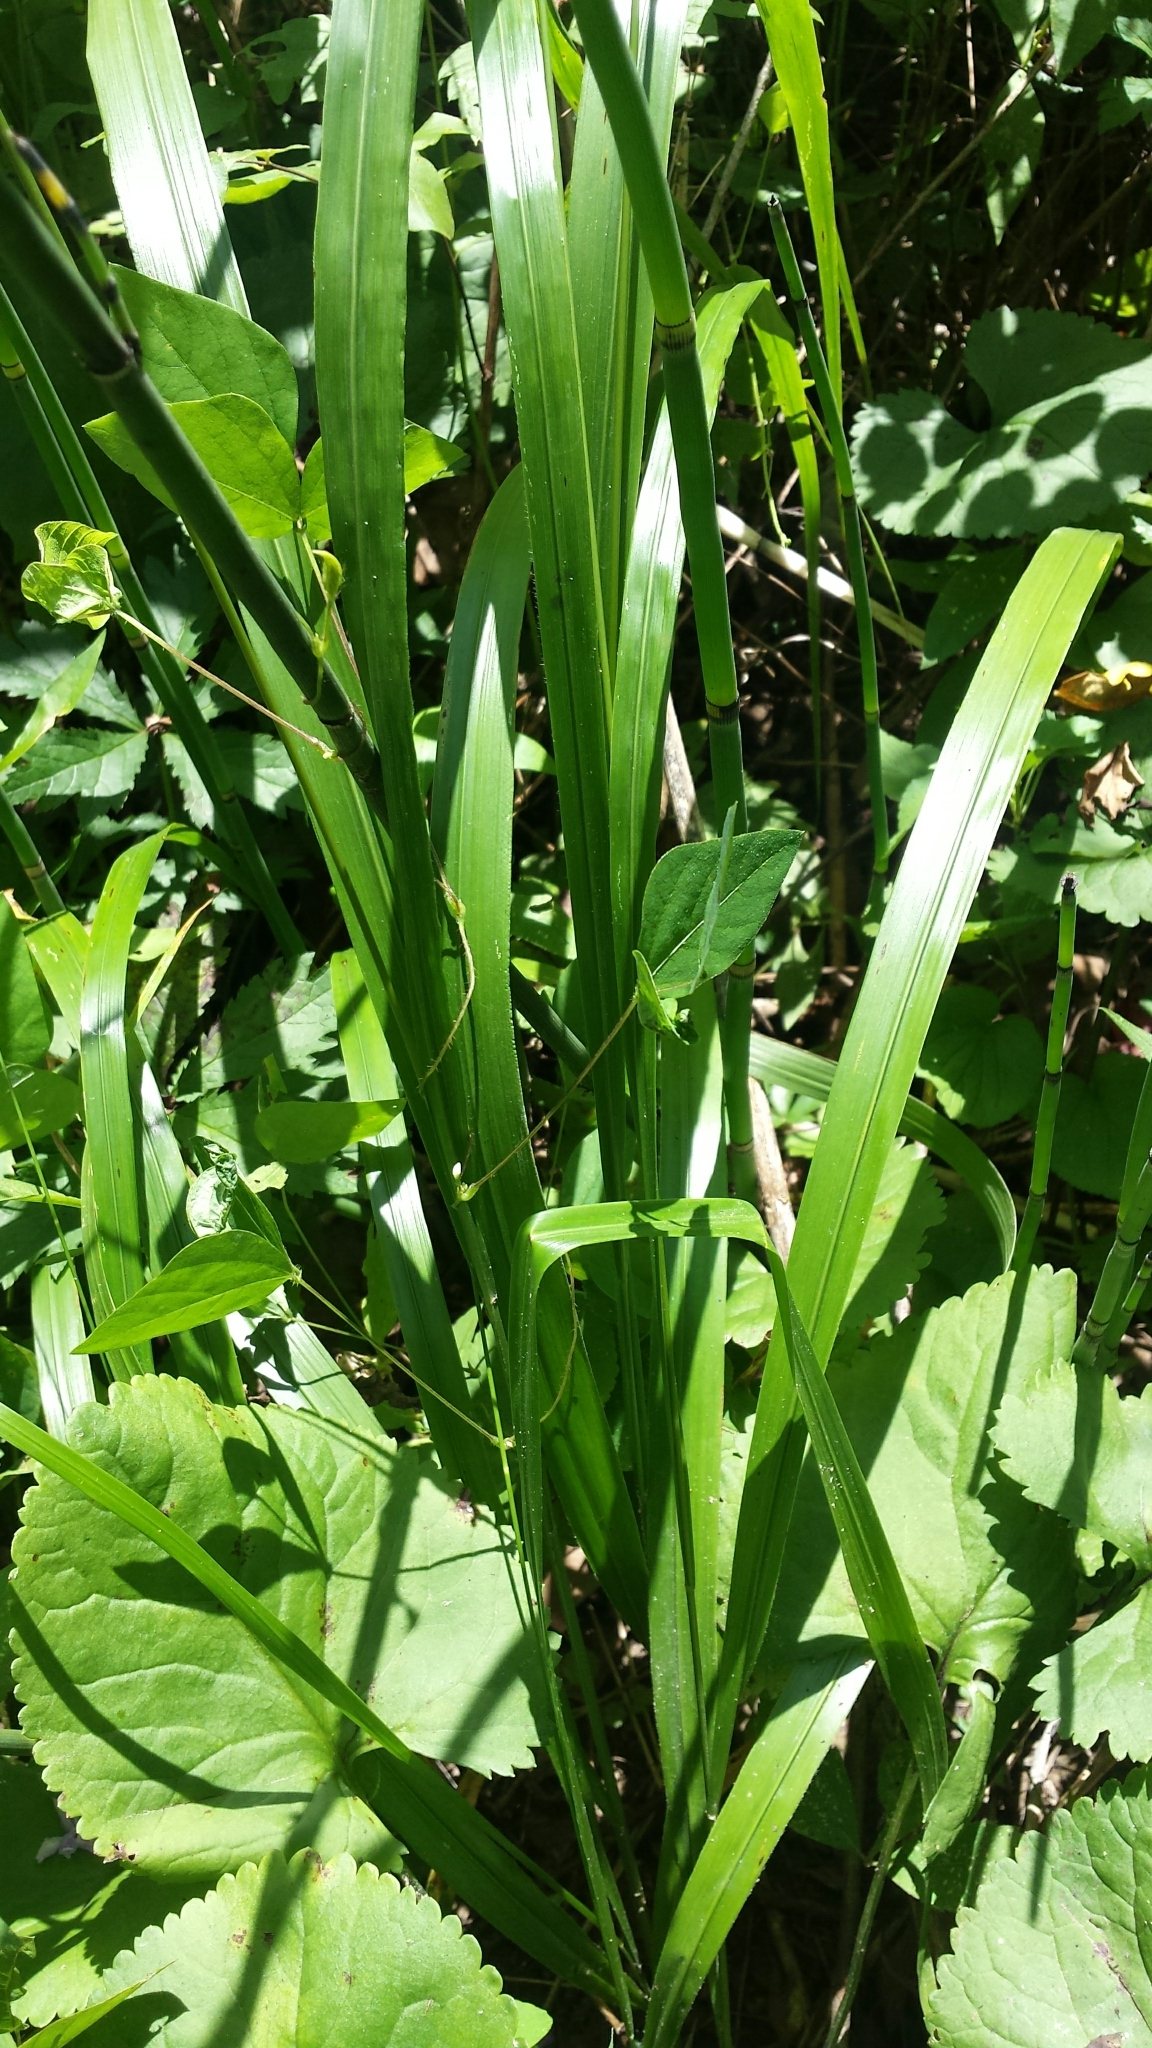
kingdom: Plantae
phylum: Tracheophyta
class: Liliopsida
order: Poales
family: Poaceae
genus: Diarrhena
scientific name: Diarrhena obovata
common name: Beakgrass
